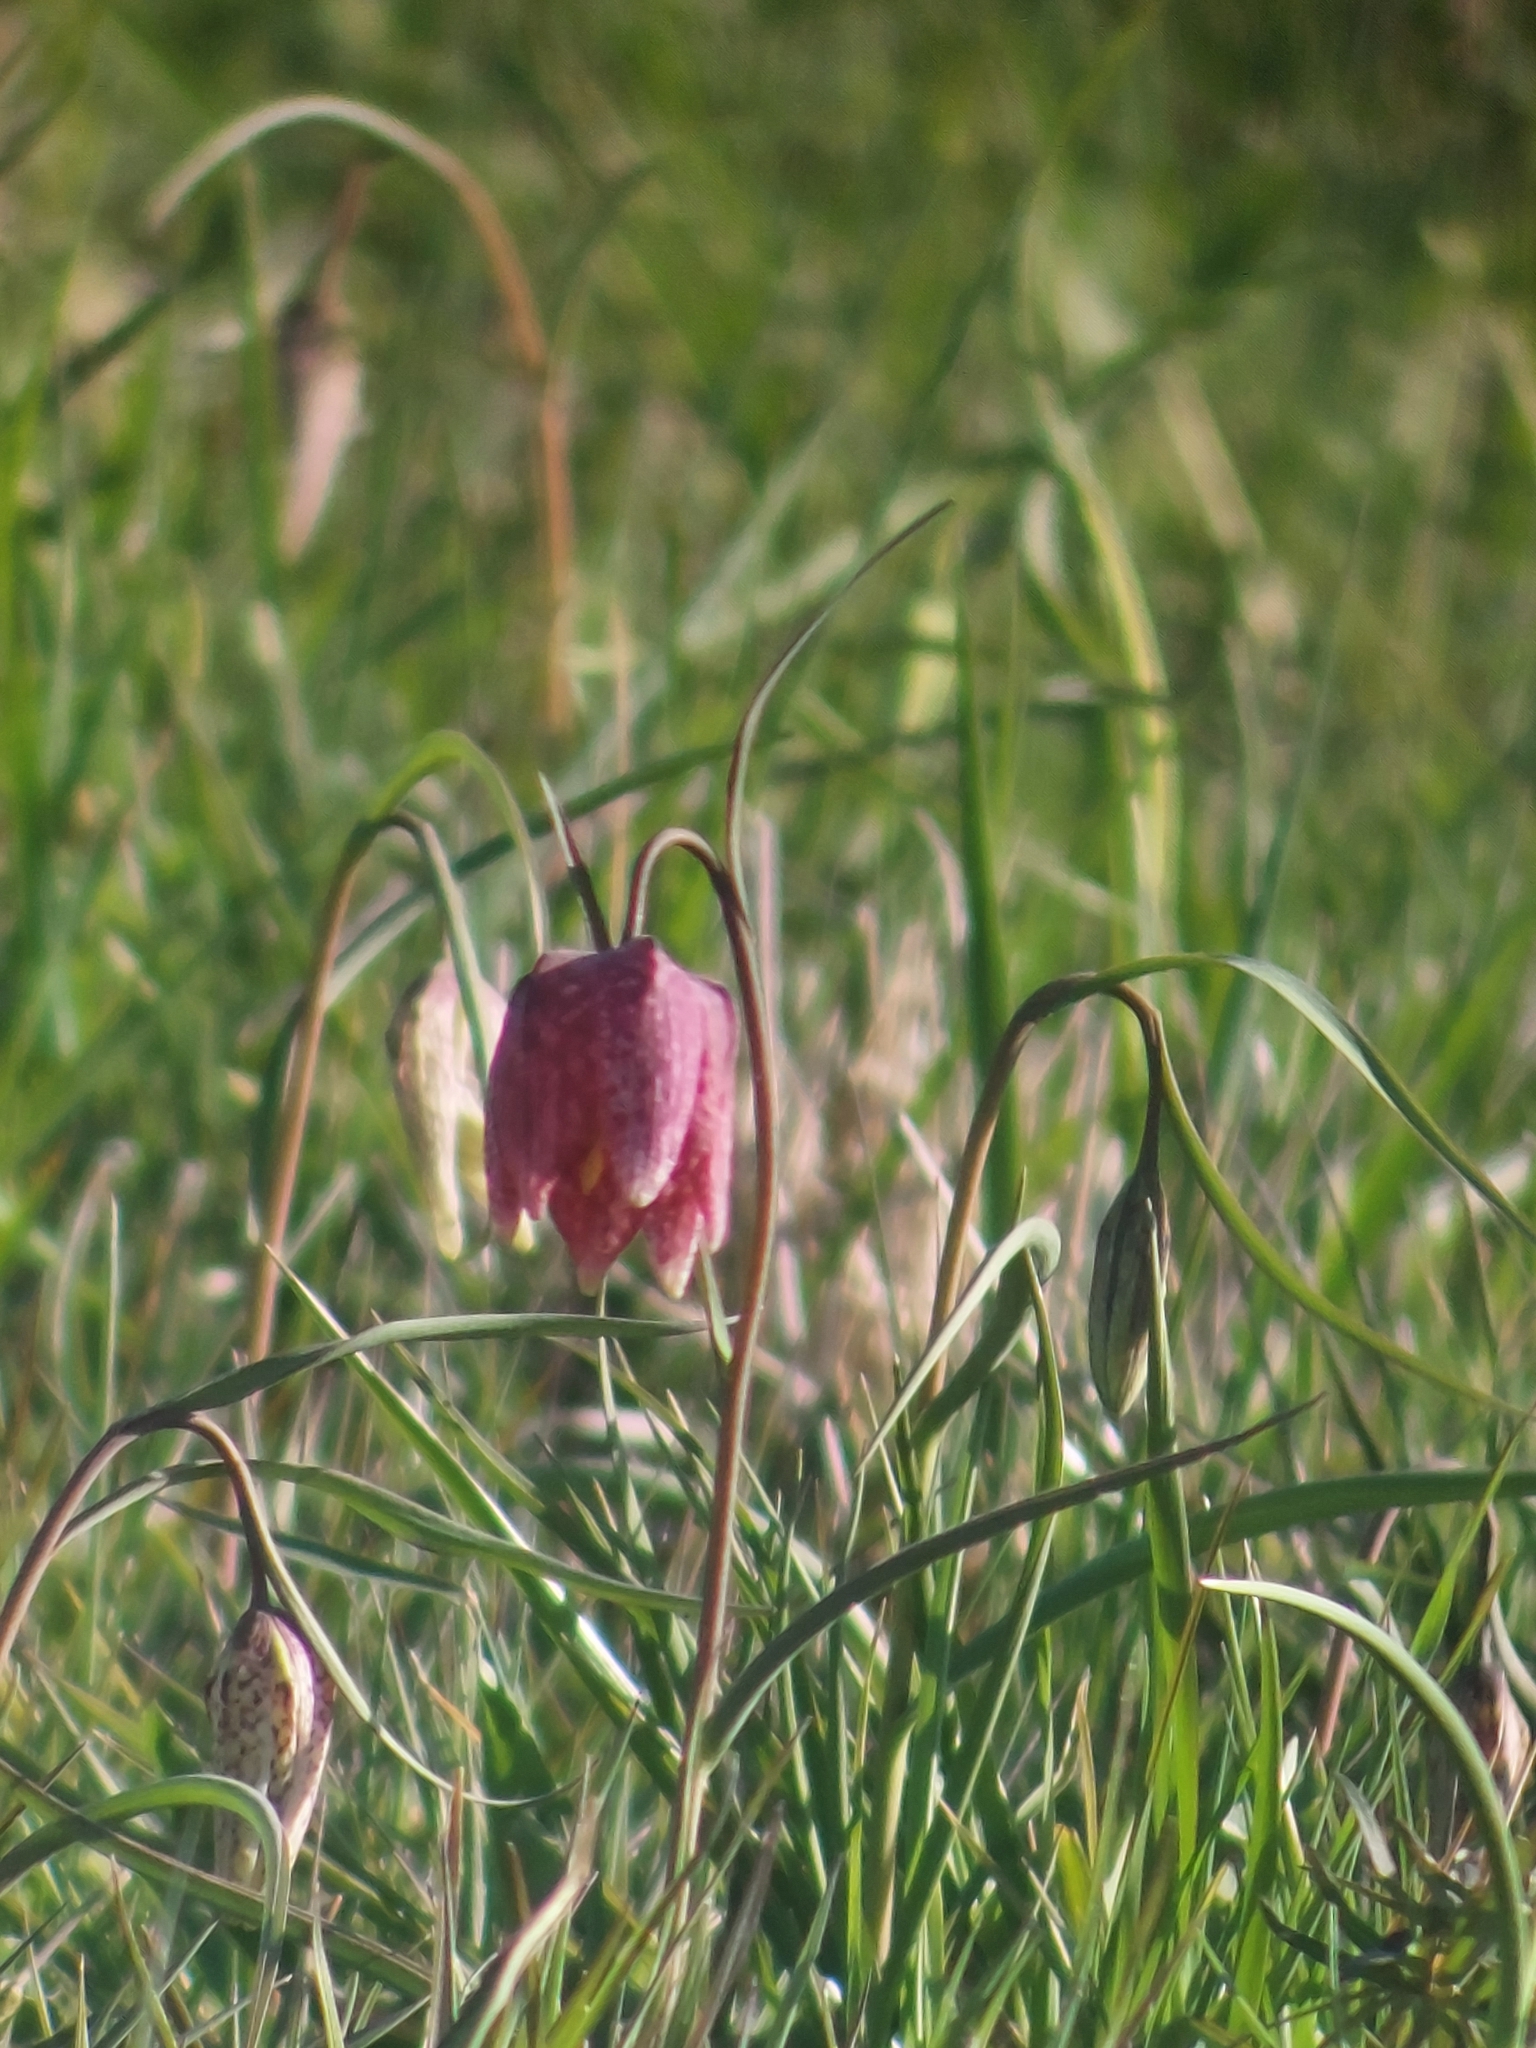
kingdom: Plantae
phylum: Tracheophyta
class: Liliopsida
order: Liliales
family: Liliaceae
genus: Fritillaria
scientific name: Fritillaria meleagris
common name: Fritillary
